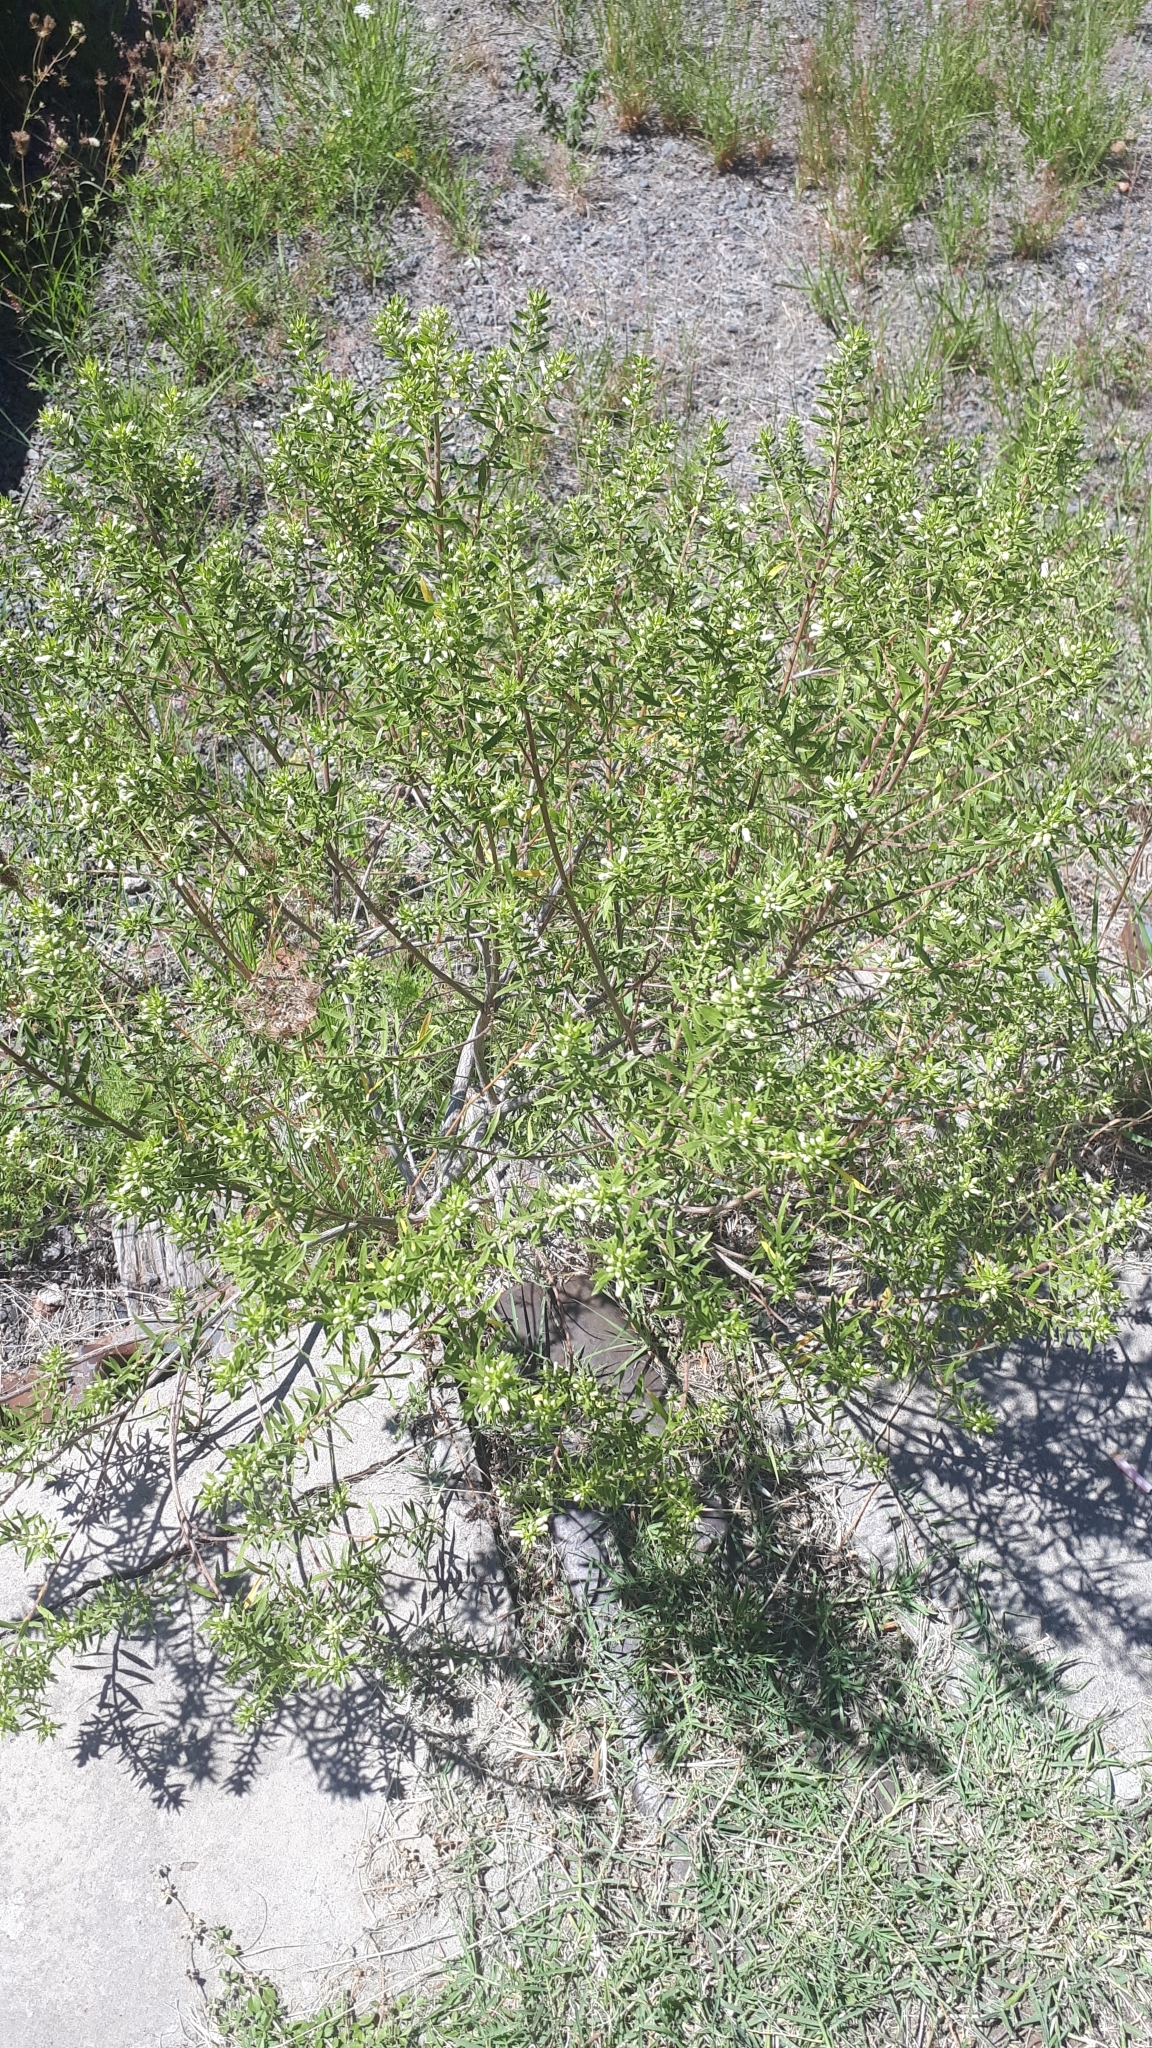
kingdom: Plantae
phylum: Tracheophyta
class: Magnoliopsida
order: Asterales
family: Asteraceae
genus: Baccharis
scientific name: Baccharis dracunculifolia
